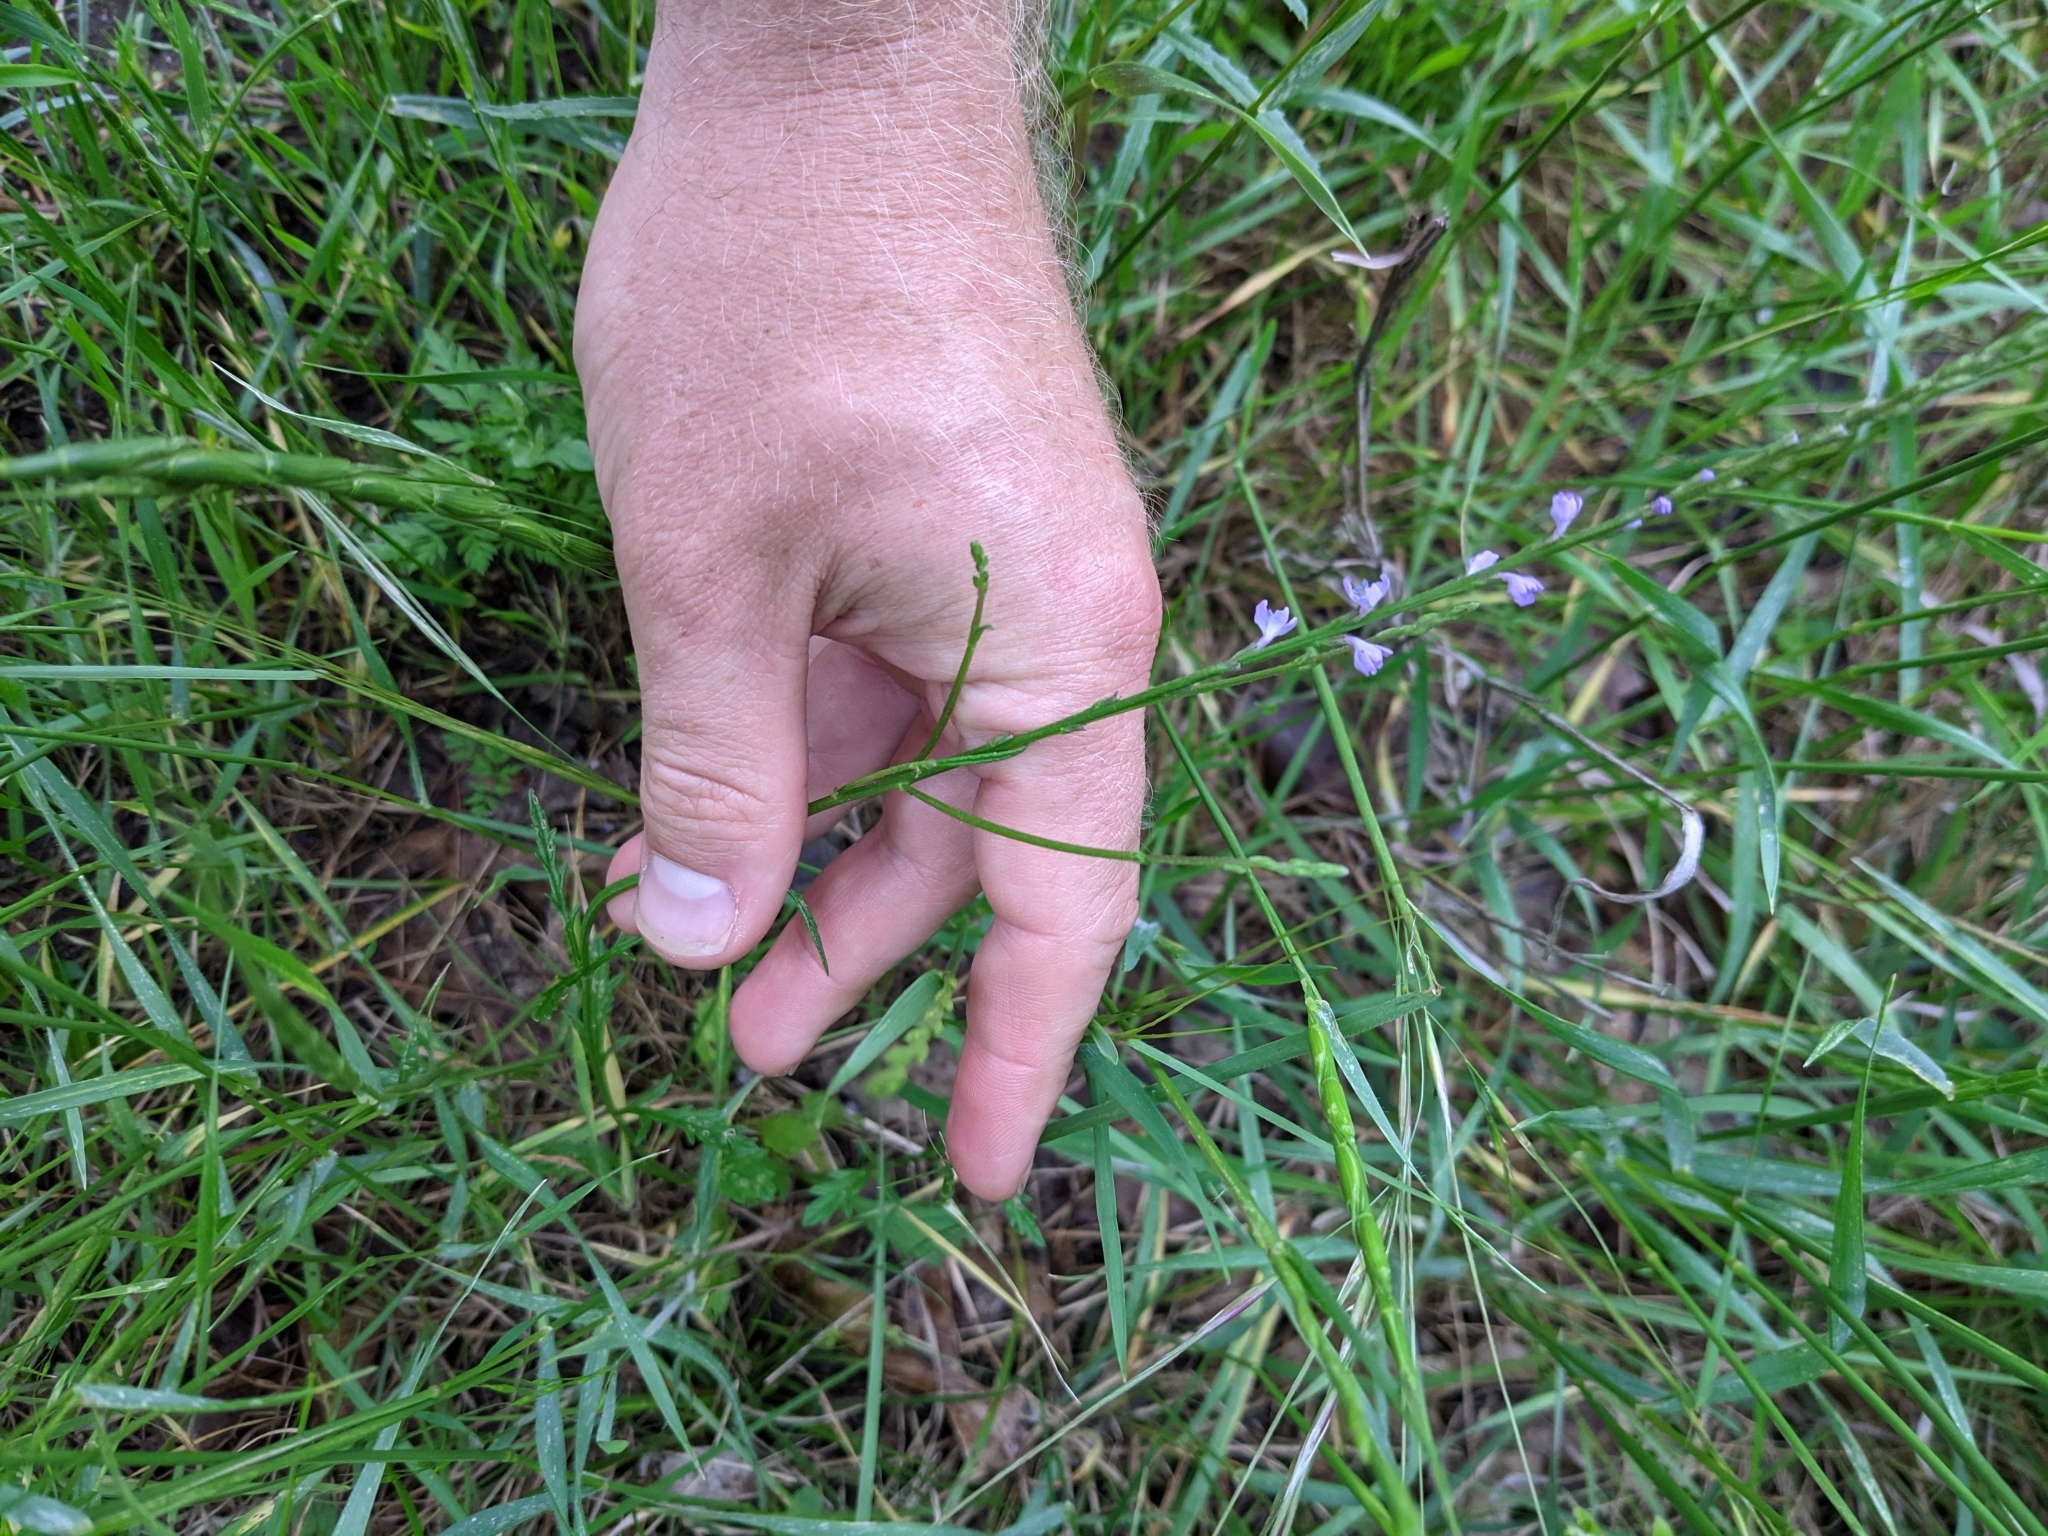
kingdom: Plantae
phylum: Tracheophyta
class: Magnoliopsida
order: Lamiales
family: Verbenaceae
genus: Verbena
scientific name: Verbena halei
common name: Texas vervain
